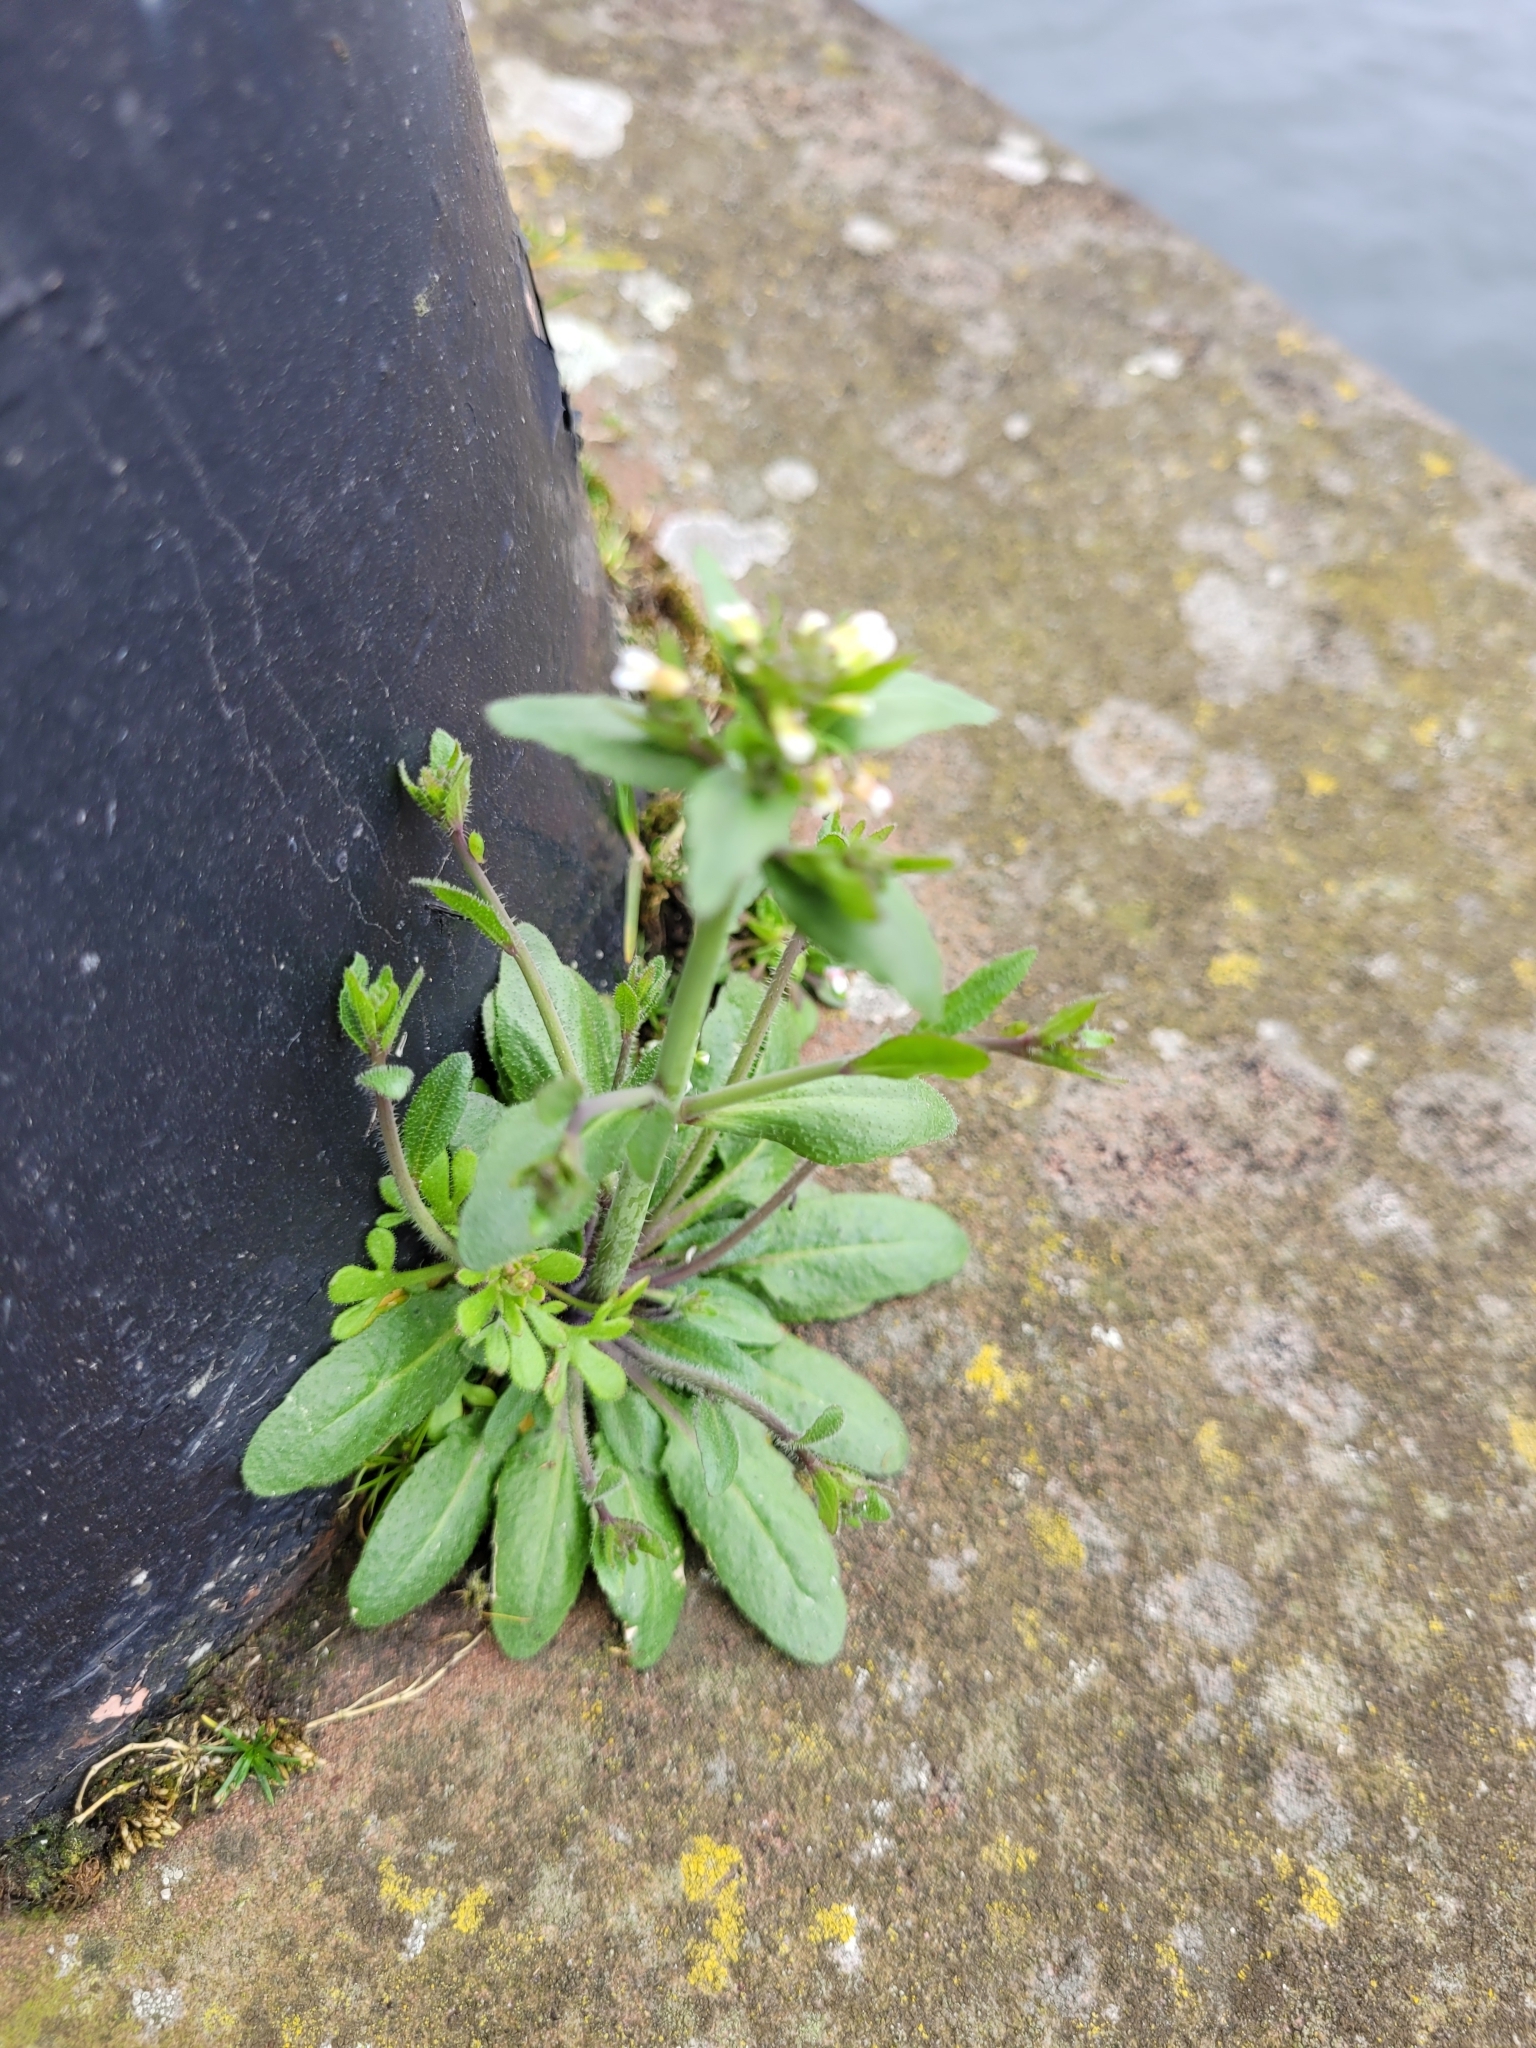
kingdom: Plantae
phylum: Tracheophyta
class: Magnoliopsida
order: Brassicales
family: Brassicaceae
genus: Arabidopsis
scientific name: Arabidopsis thaliana
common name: Thale cress
